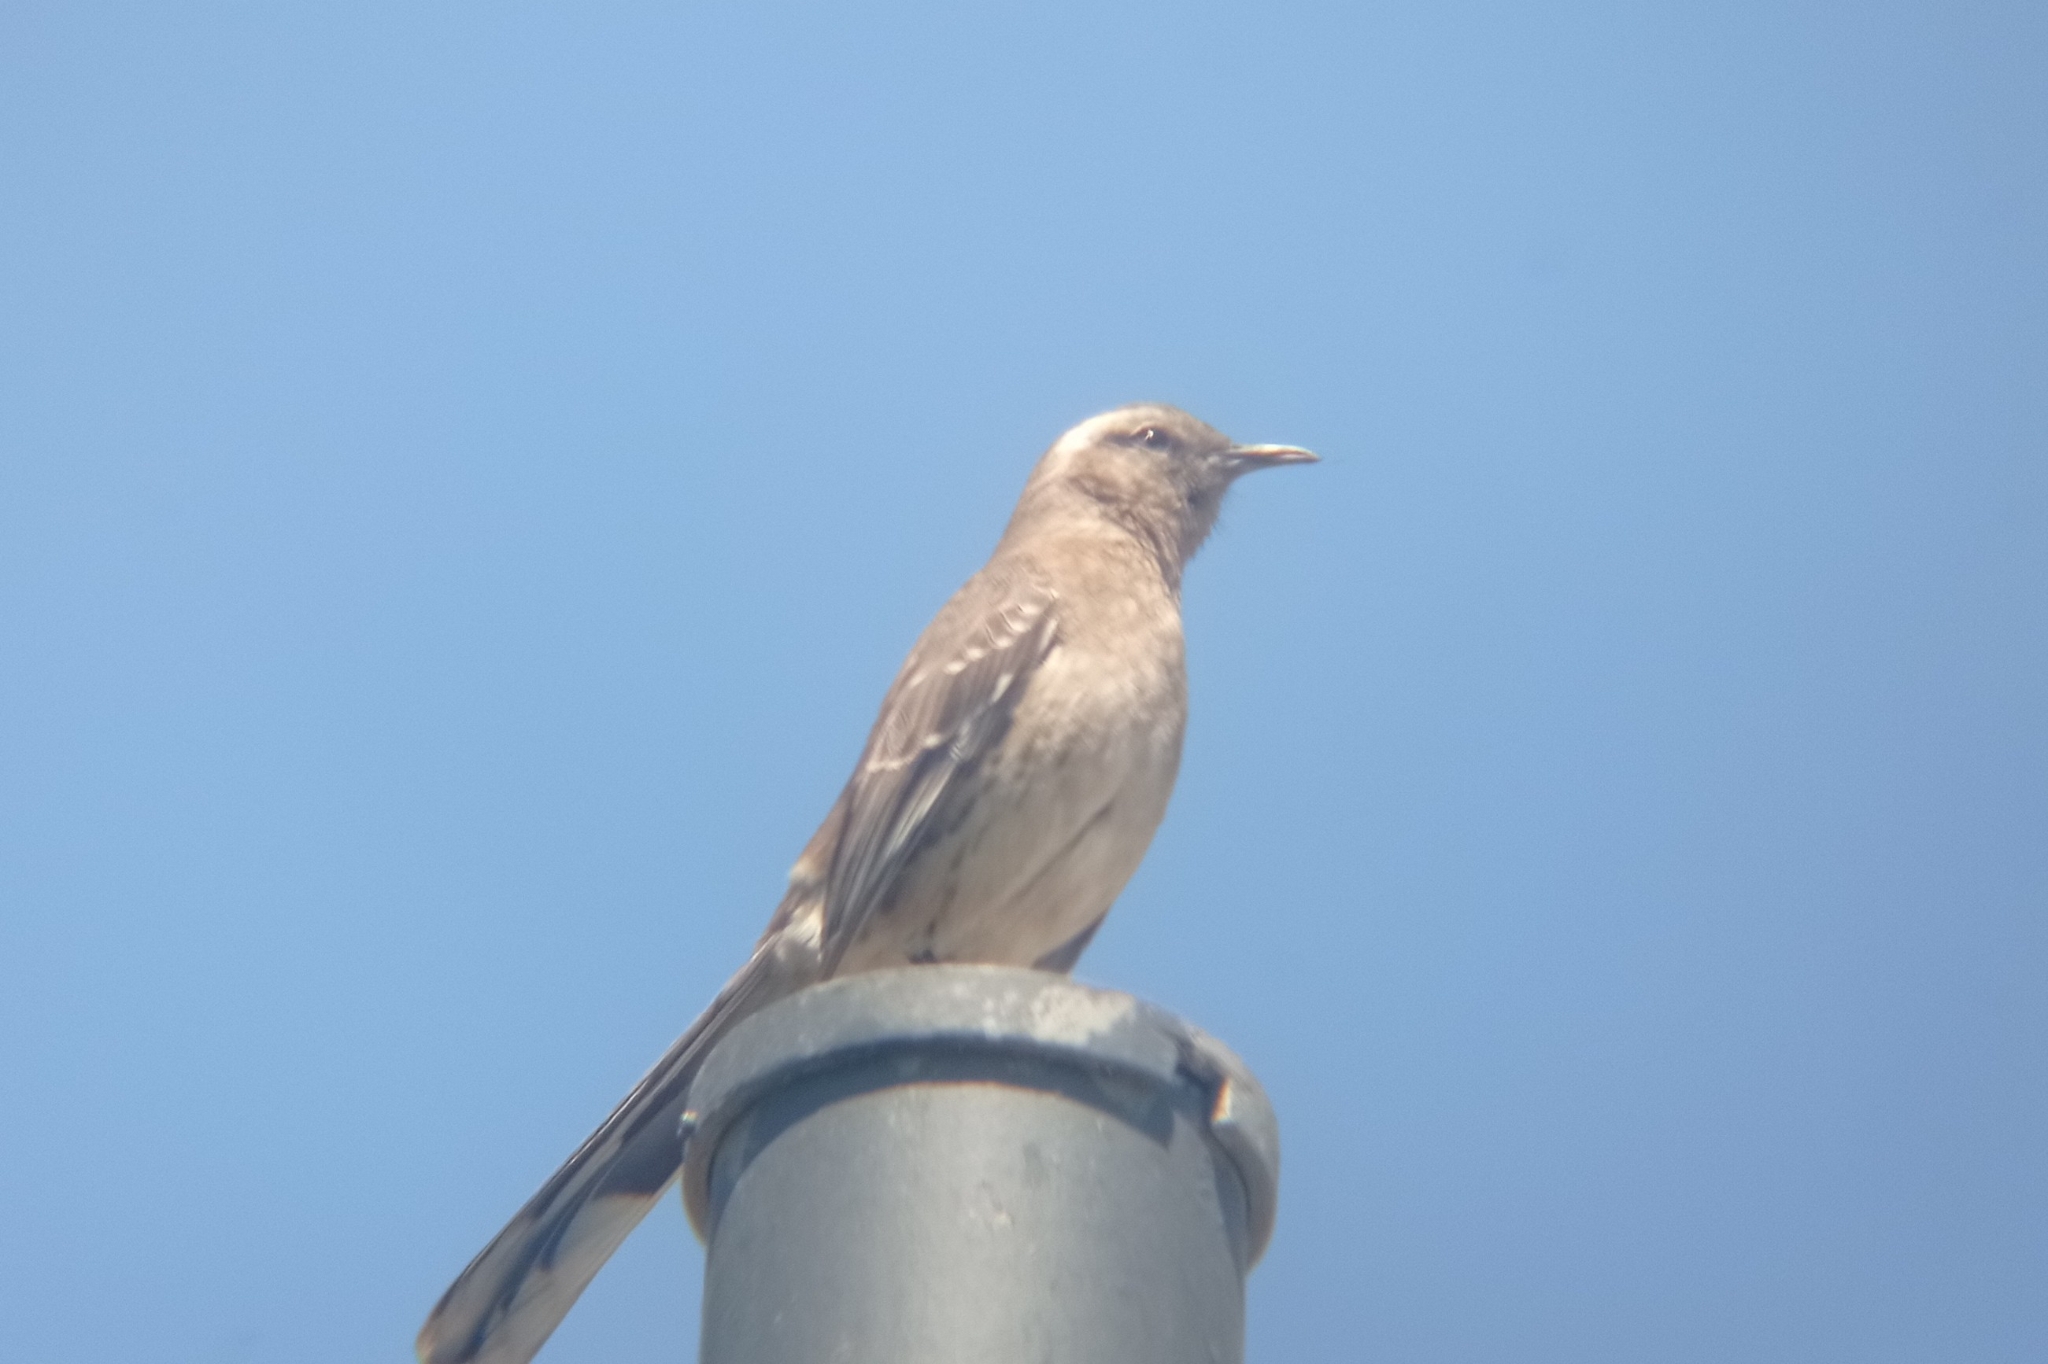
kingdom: Animalia
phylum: Chordata
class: Aves
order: Passeriformes
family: Mimidae
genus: Mimus
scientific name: Mimus thenca
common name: Chilean mockingbird
